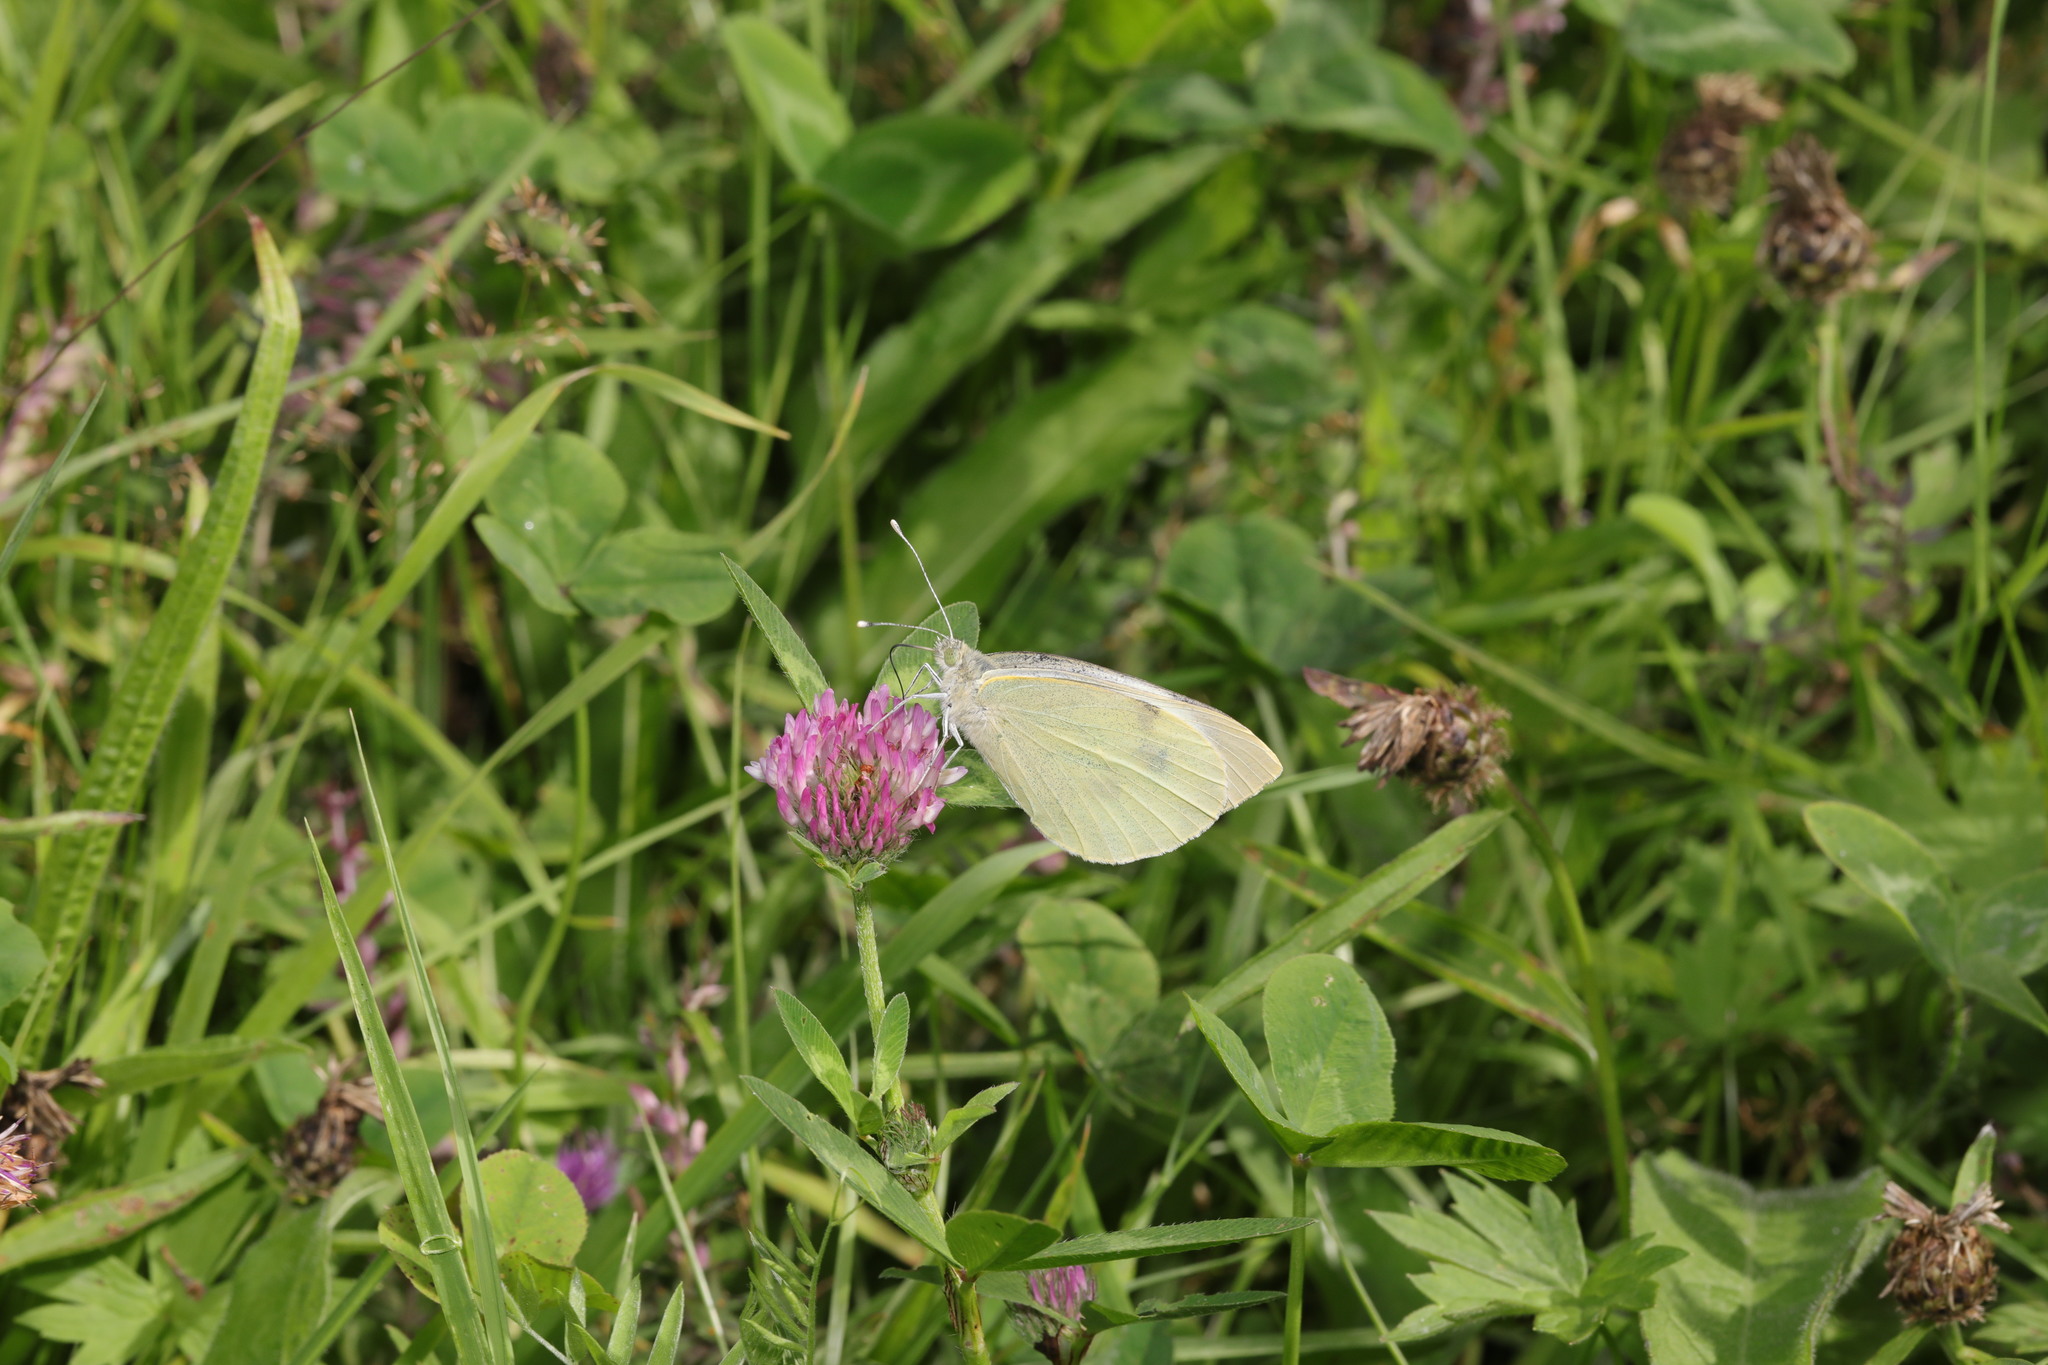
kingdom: Animalia
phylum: Arthropoda
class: Insecta
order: Lepidoptera
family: Pieridae
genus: Pieris
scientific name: Pieris brassicae
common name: Large white
